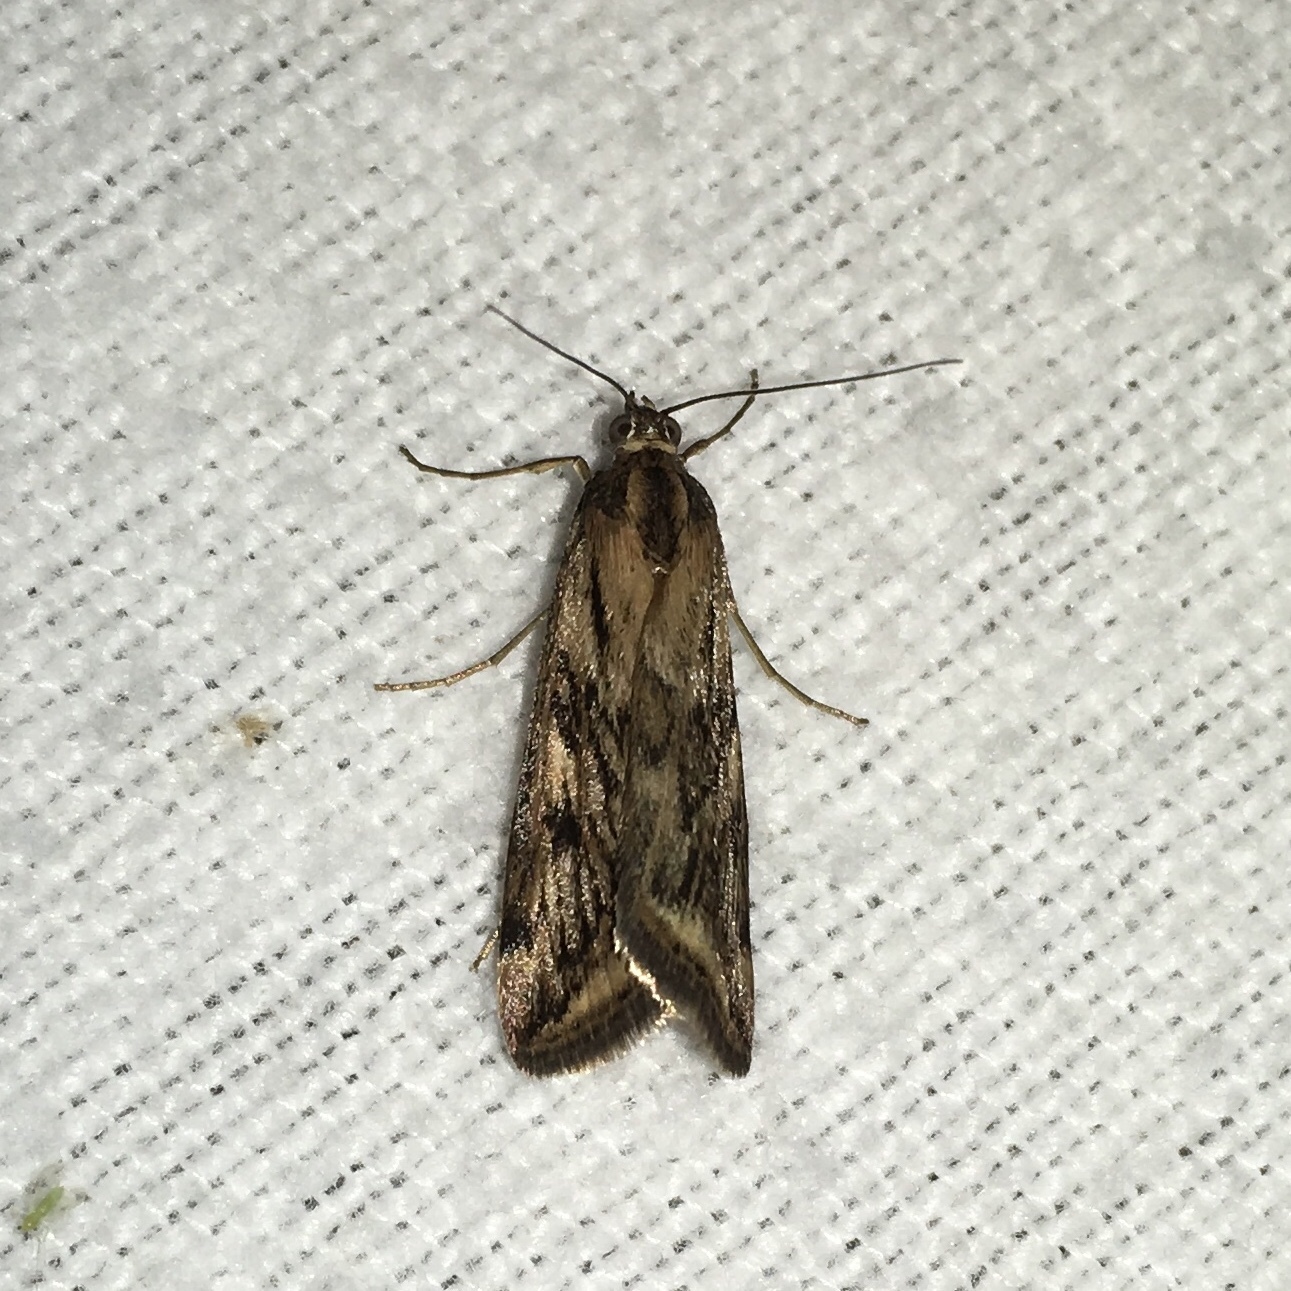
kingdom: Animalia
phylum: Arthropoda
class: Insecta
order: Lepidoptera
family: Crambidae
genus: Nomophila
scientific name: Nomophila nearctica
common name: American rush veneer
